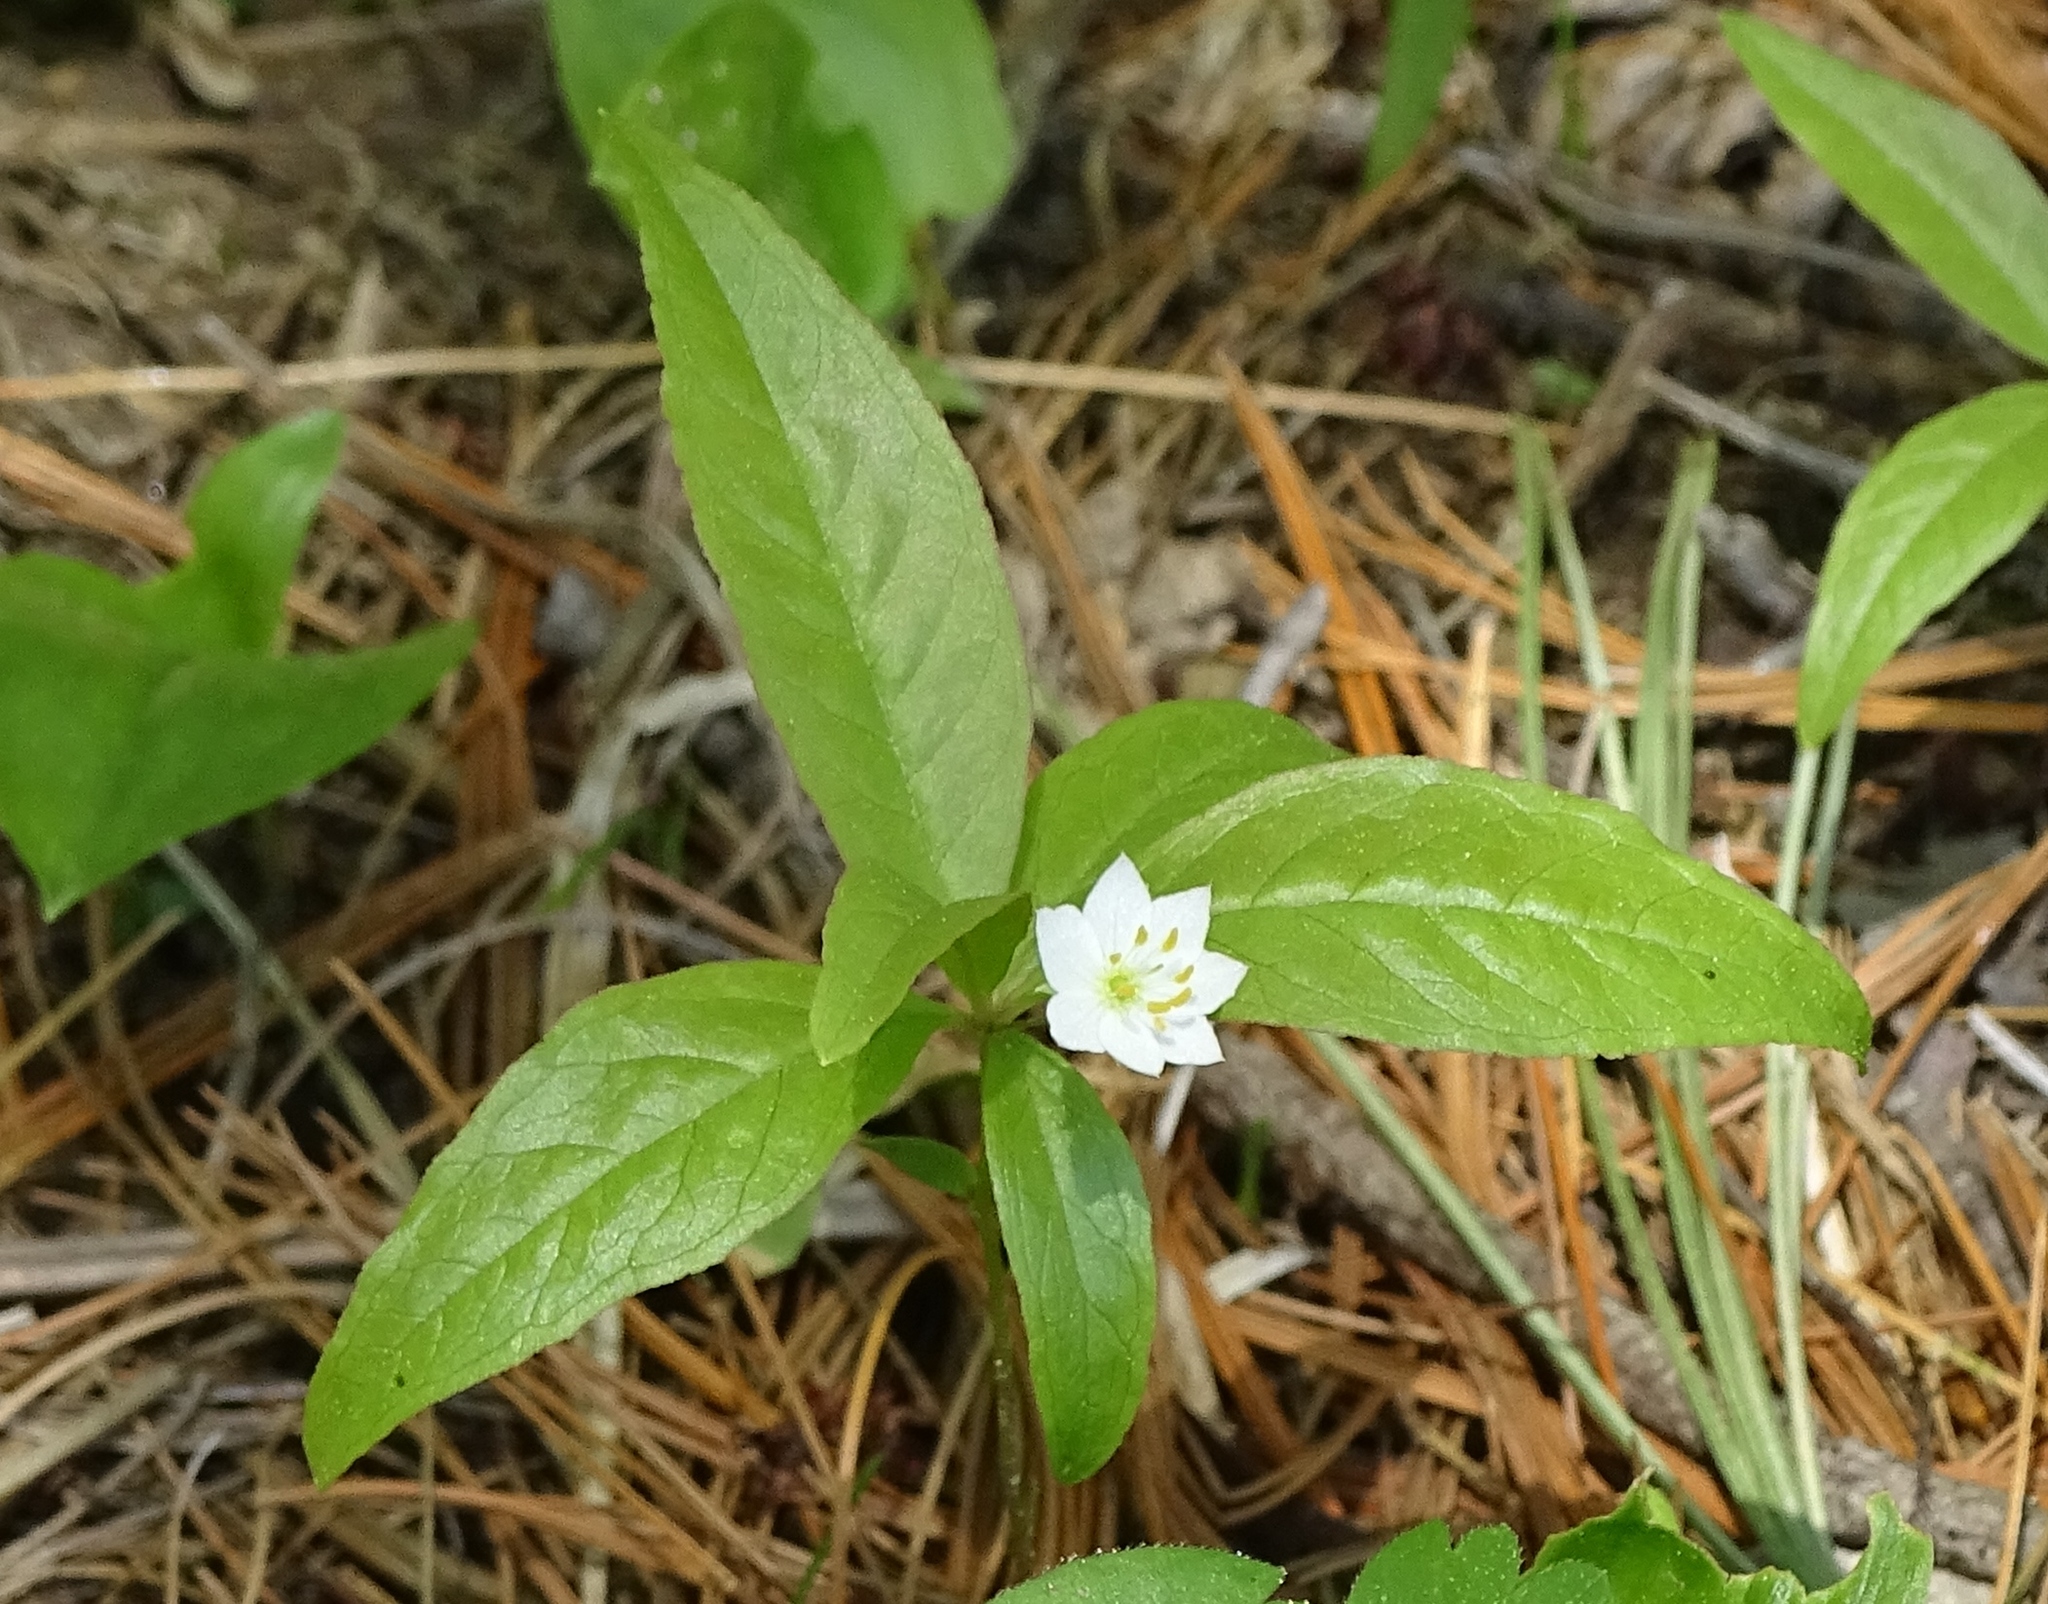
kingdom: Plantae
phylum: Tracheophyta
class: Magnoliopsida
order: Ericales
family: Primulaceae
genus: Lysimachia
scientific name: Lysimachia borealis
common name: American starflower
